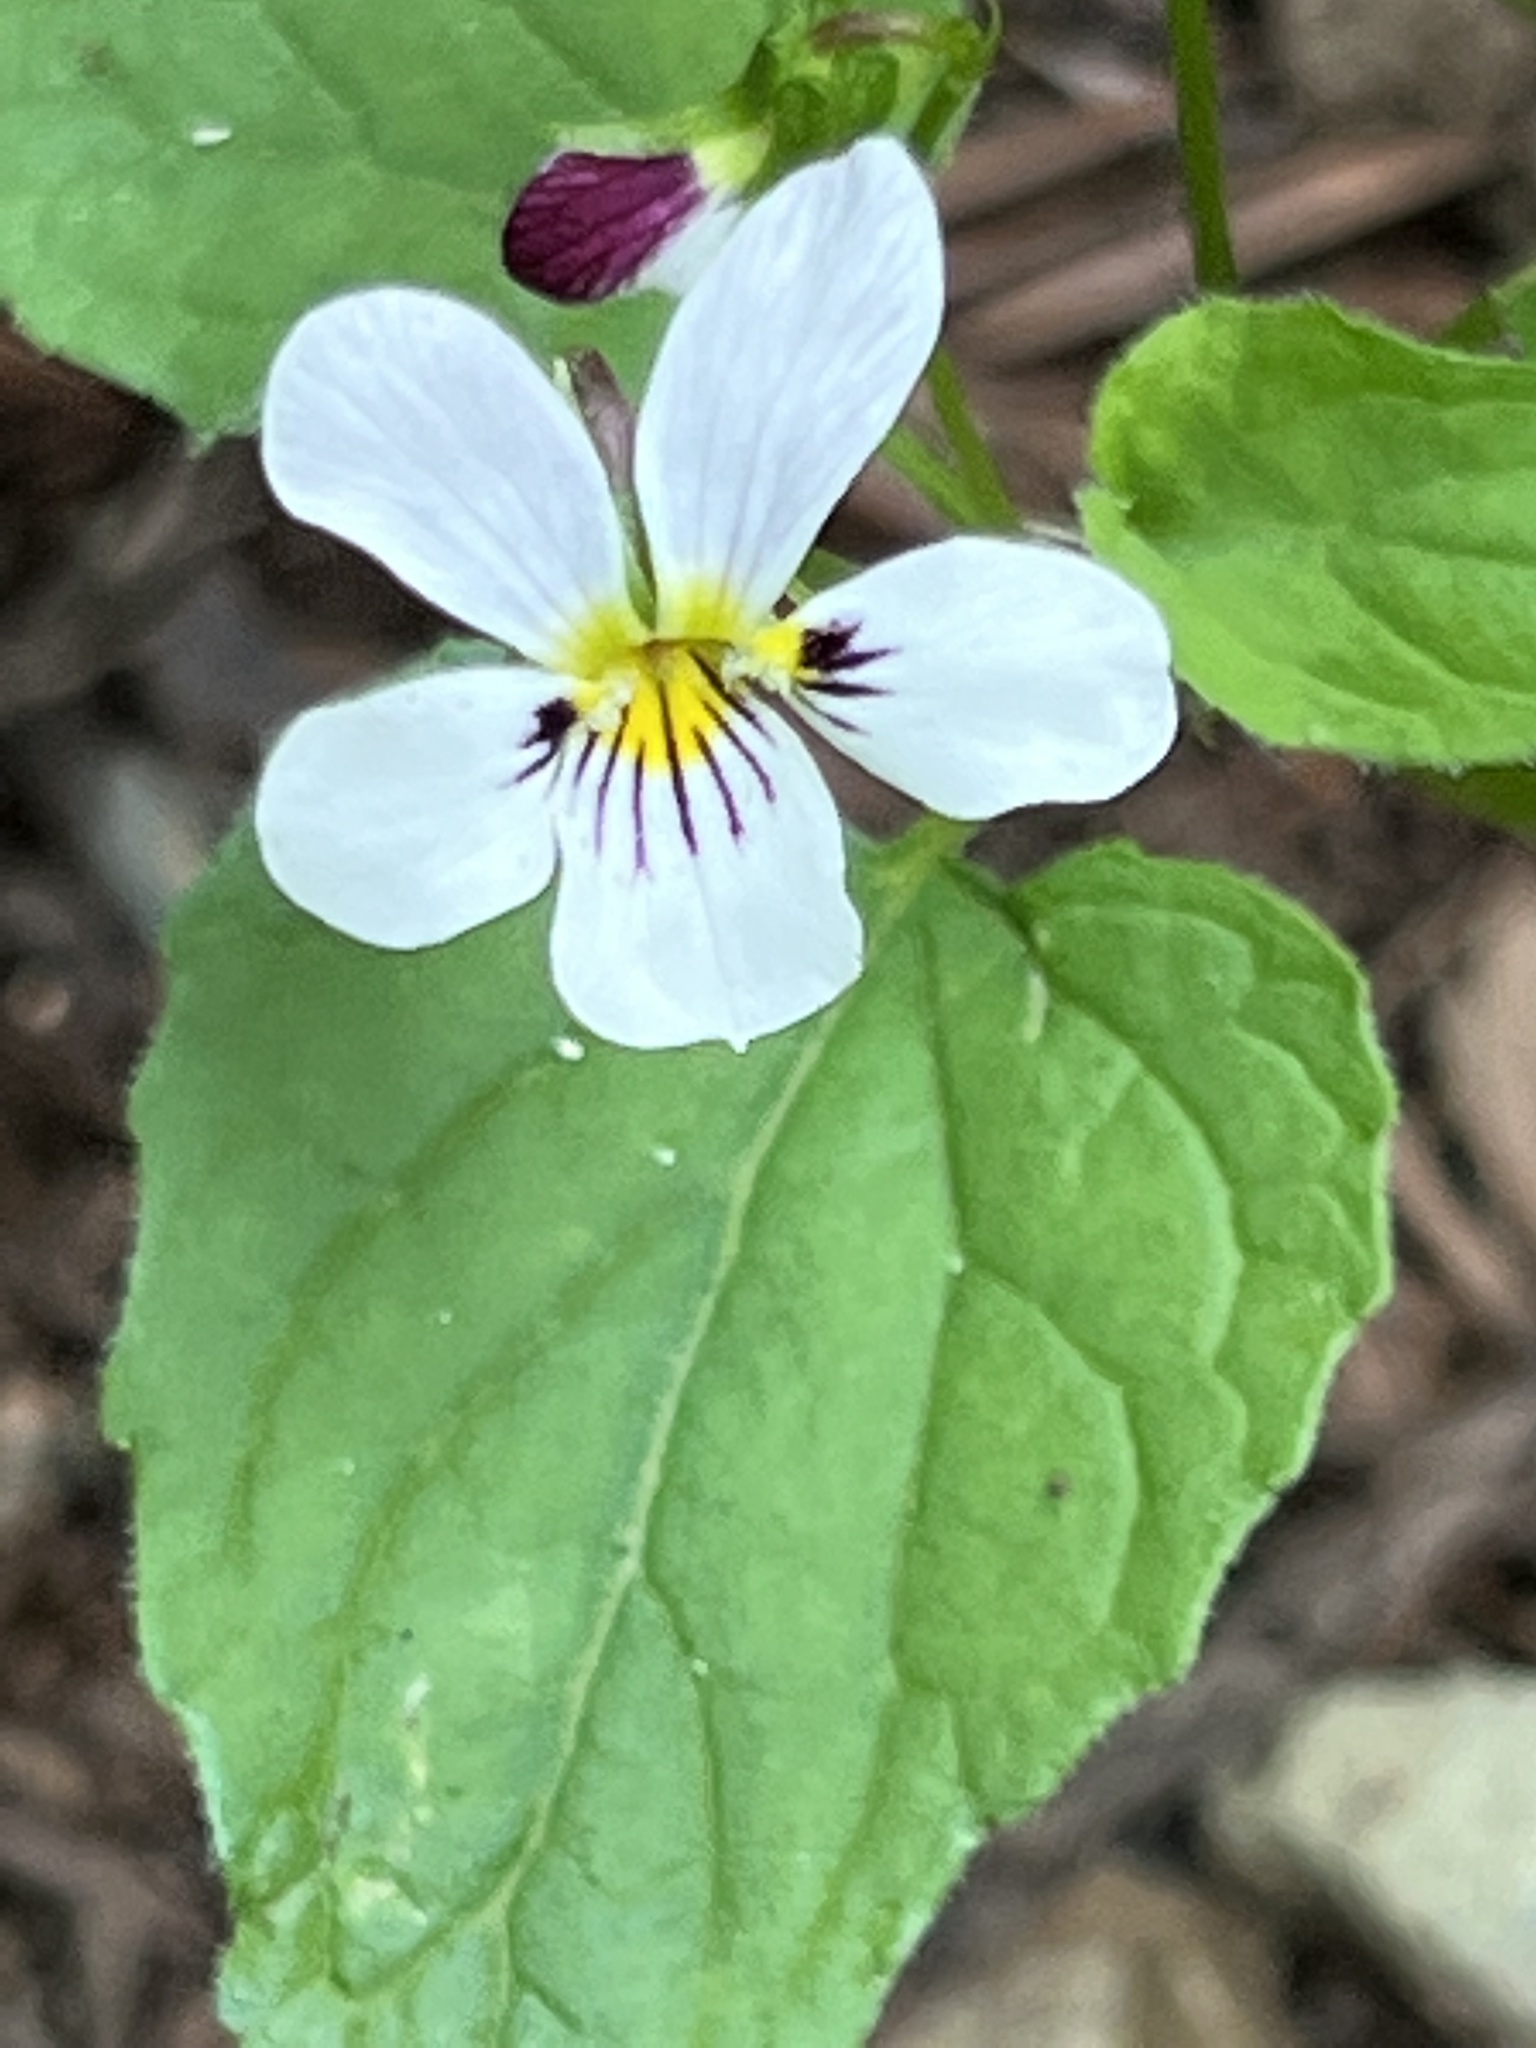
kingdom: Plantae
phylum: Tracheophyta
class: Magnoliopsida
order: Malpighiales
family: Violaceae
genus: Viola
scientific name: Viola ocellata
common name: Western heart's ease
